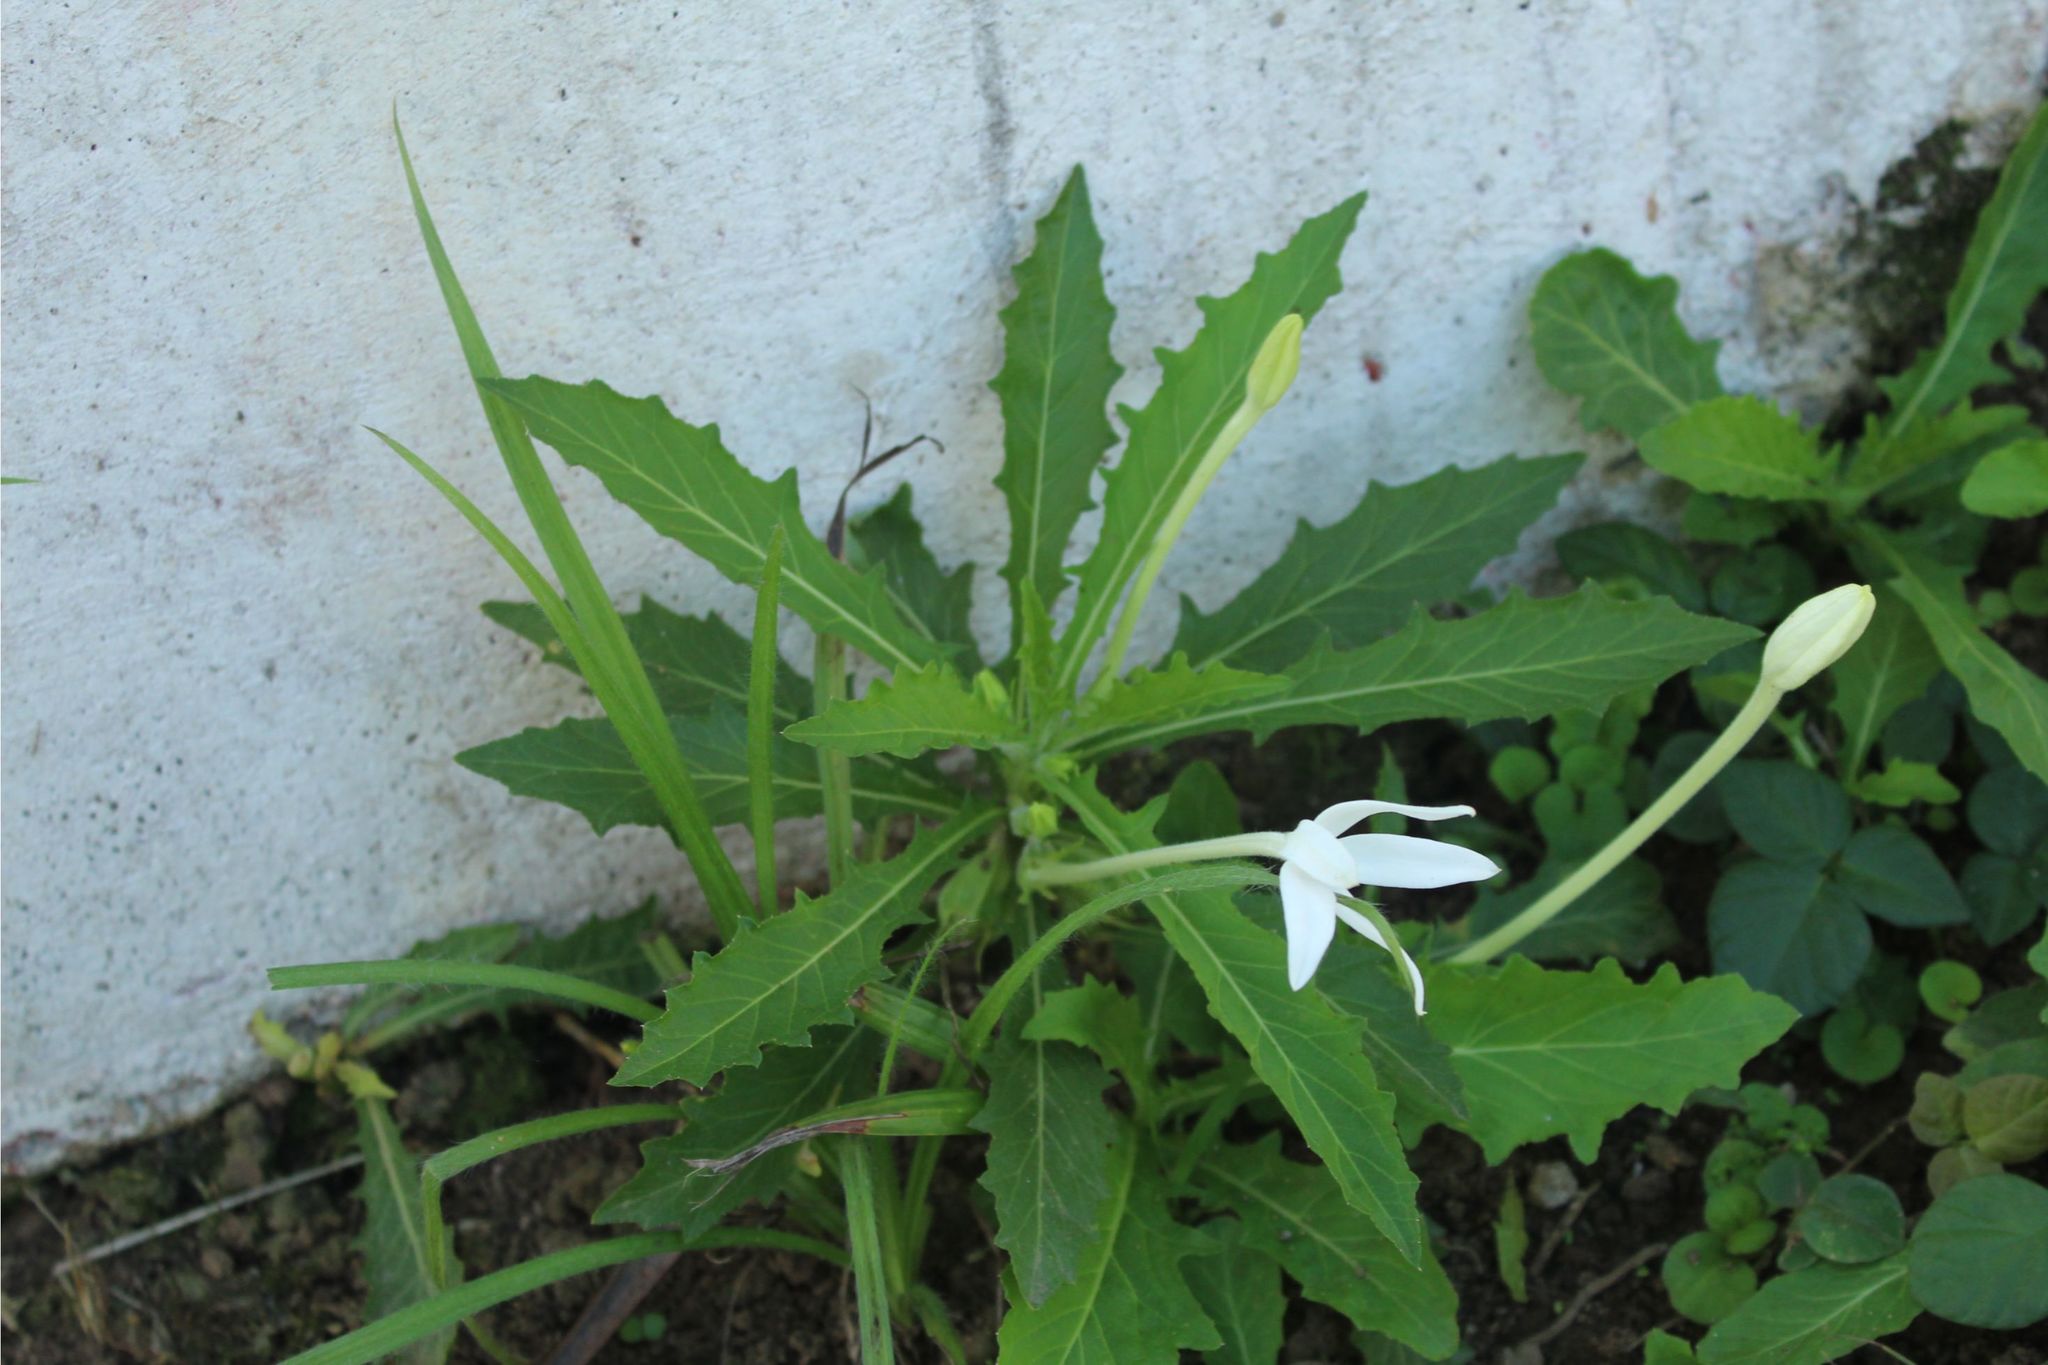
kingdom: Plantae
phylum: Tracheophyta
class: Magnoliopsida
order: Asterales
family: Campanulaceae
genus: Hippobroma
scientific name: Hippobroma longiflora
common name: Madamfate
